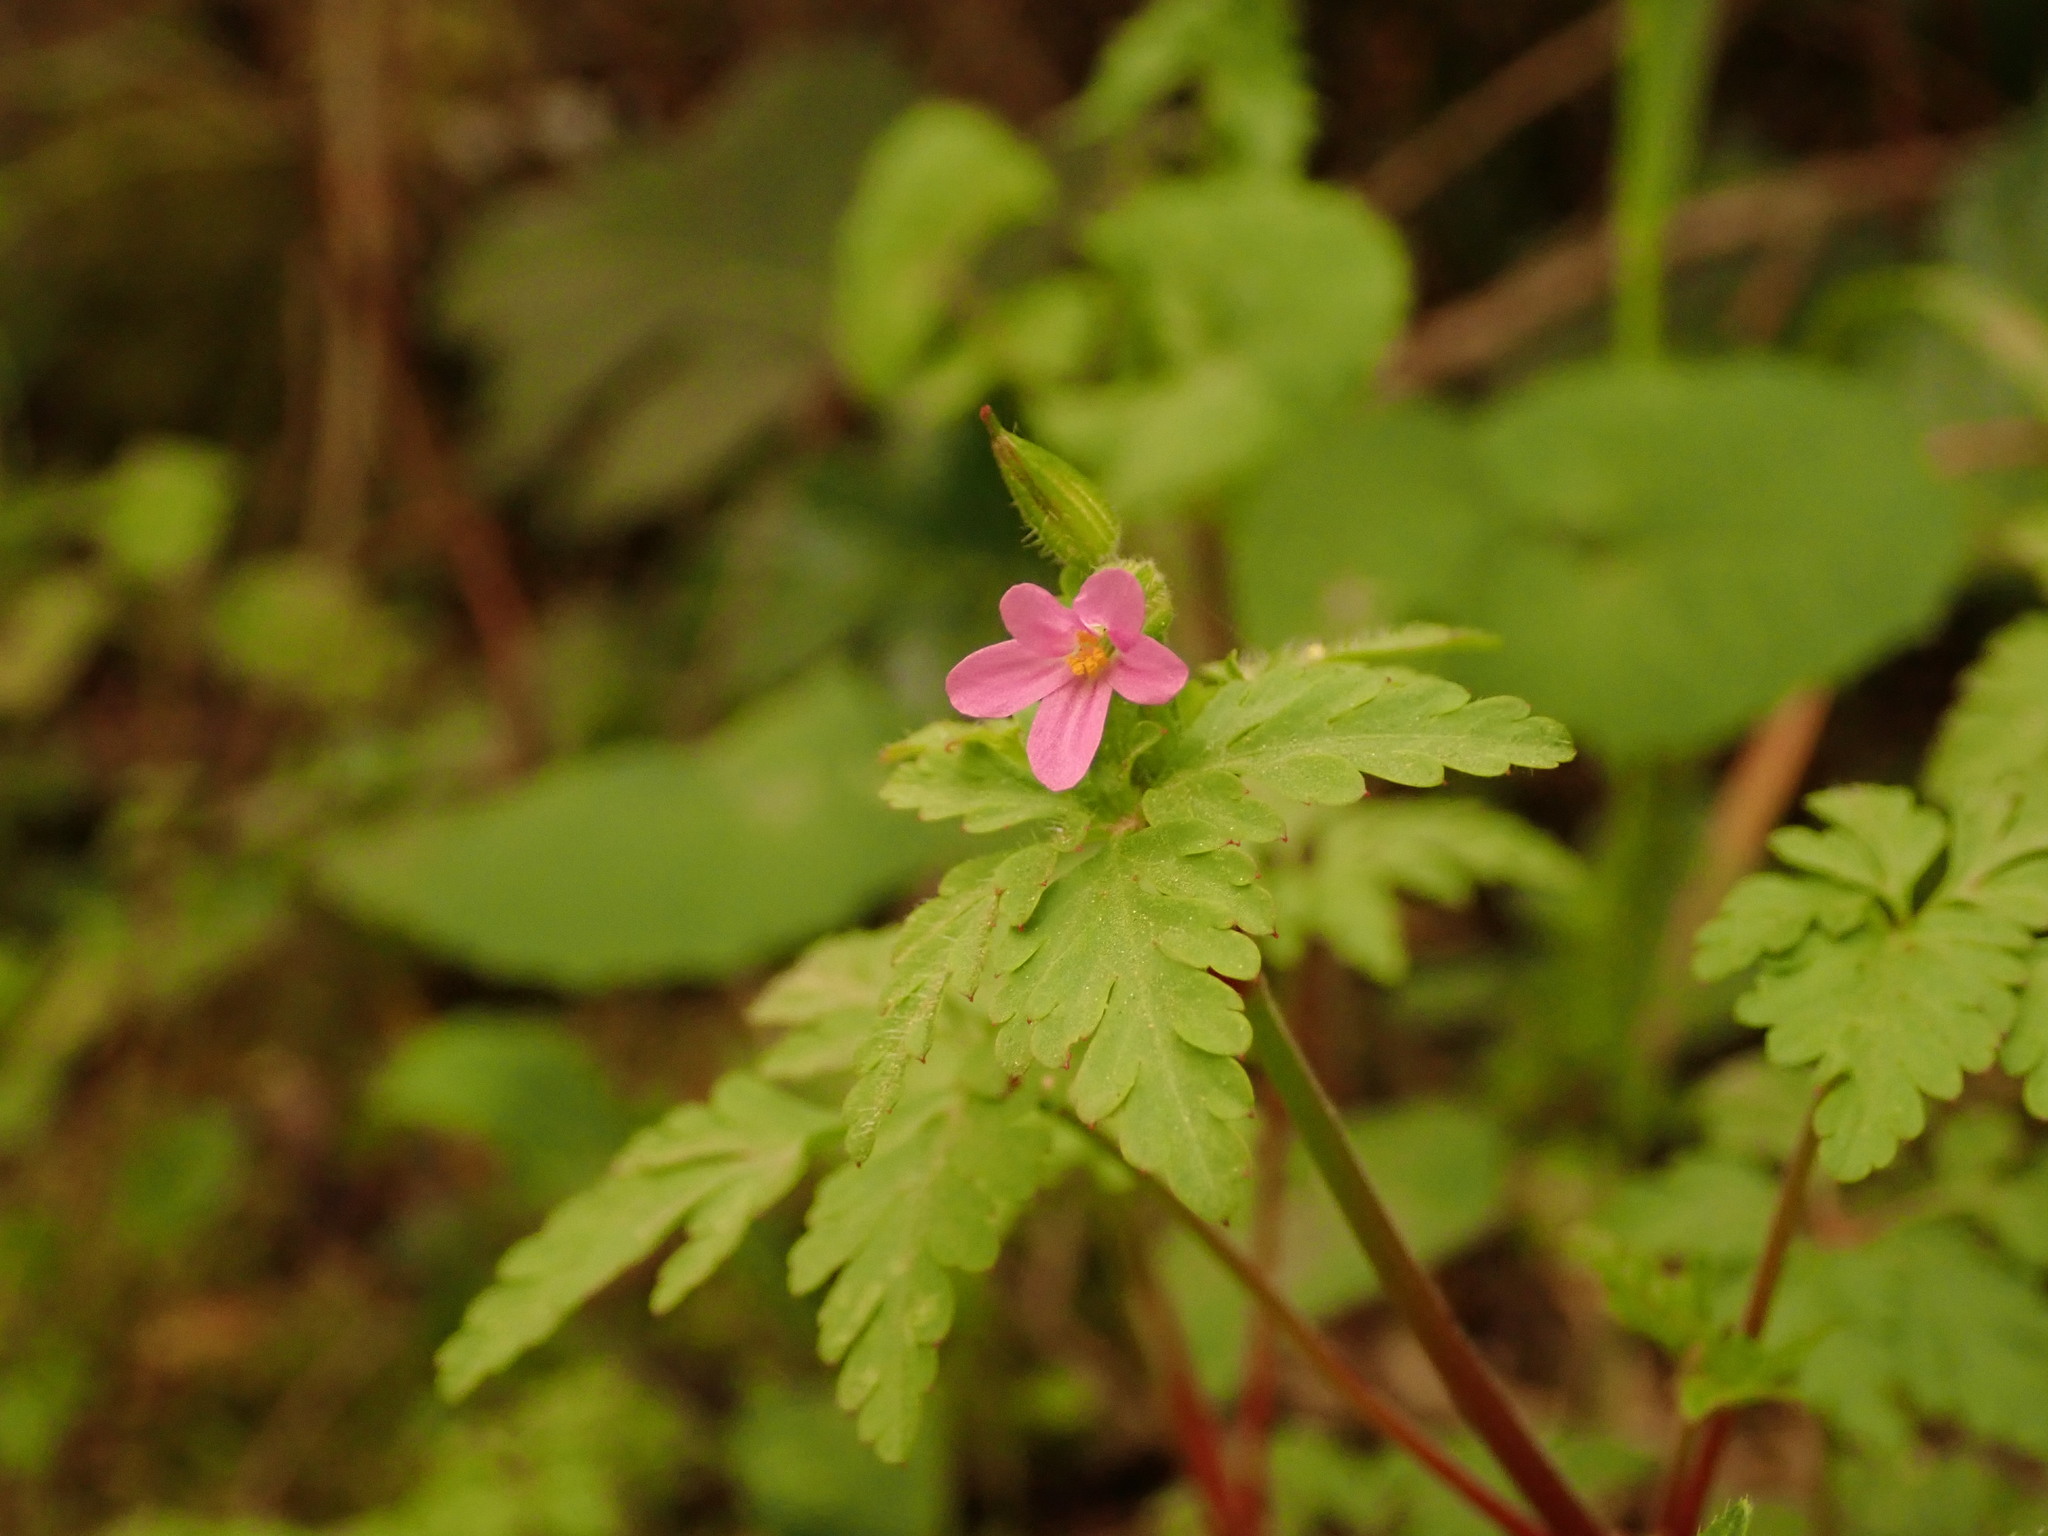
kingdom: Plantae
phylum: Tracheophyta
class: Magnoliopsida
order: Geraniales
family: Geraniaceae
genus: Geranium
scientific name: Geranium purpureum
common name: Little-robin
